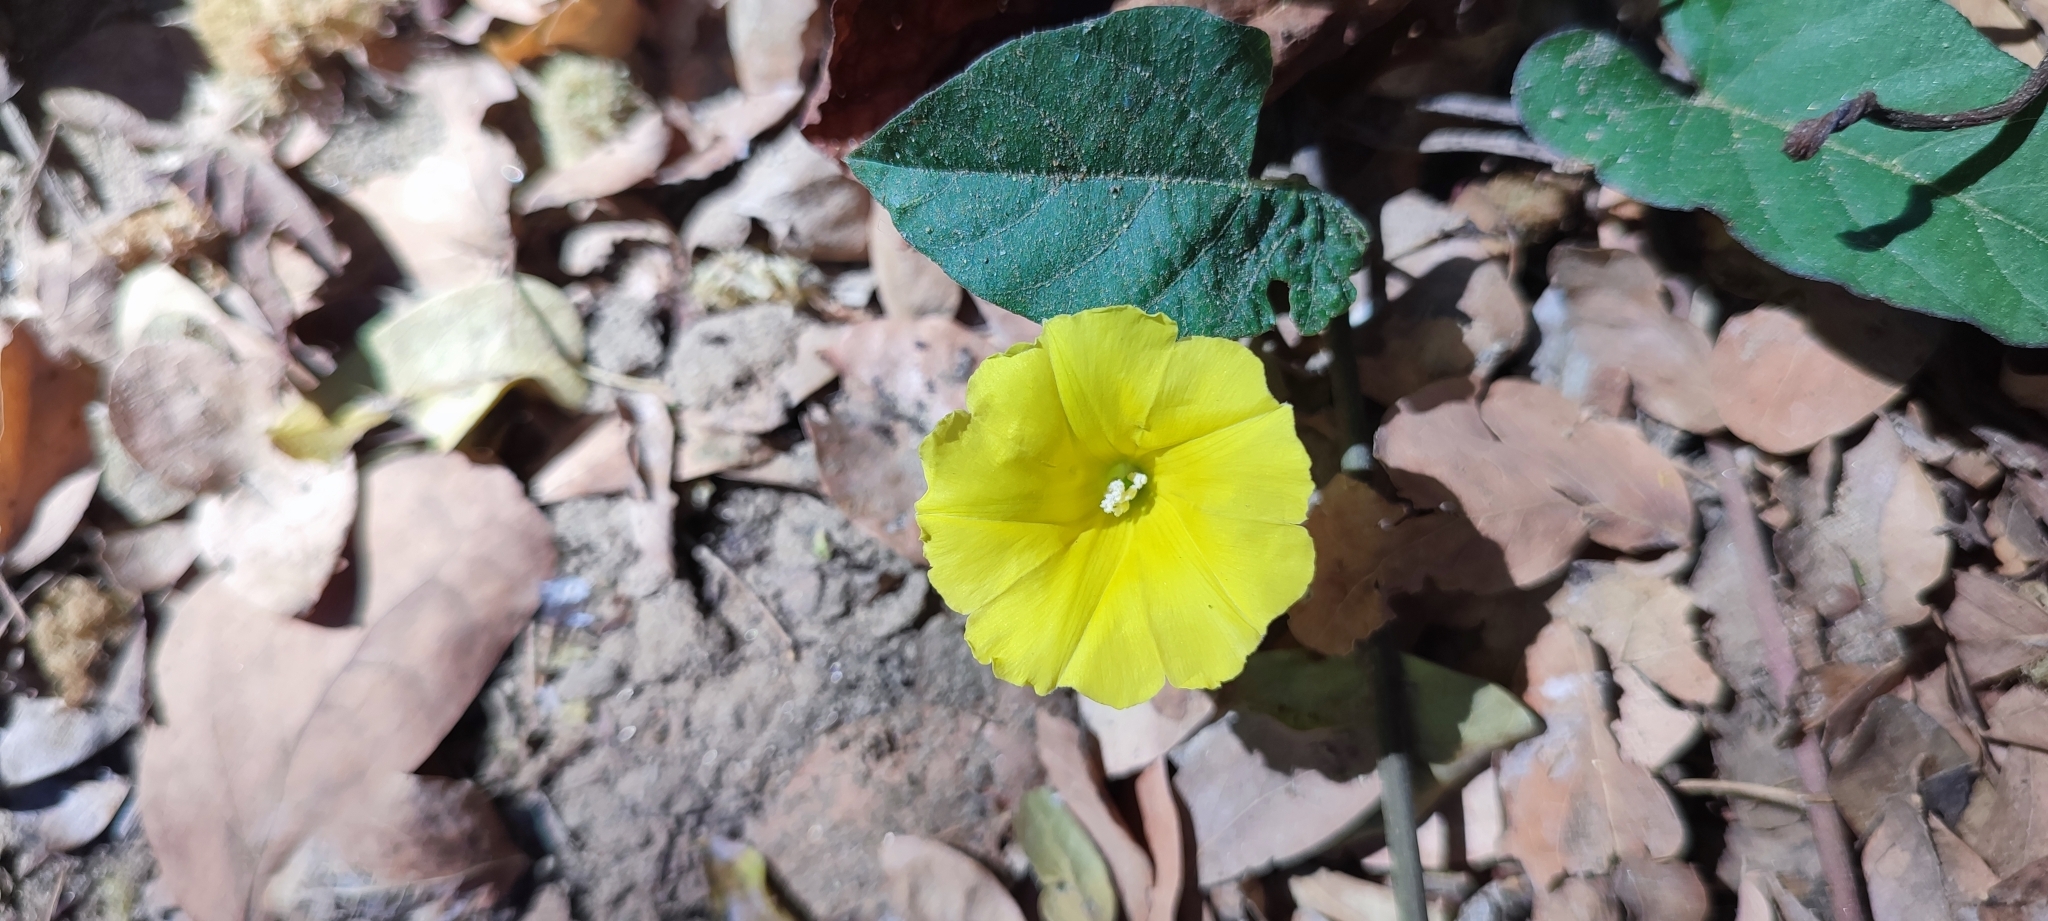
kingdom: Plantae
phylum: Tracheophyta
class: Magnoliopsida
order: Solanales
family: Convolvulaceae
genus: Camonea
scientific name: Camonea umbellata
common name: Hogvine
